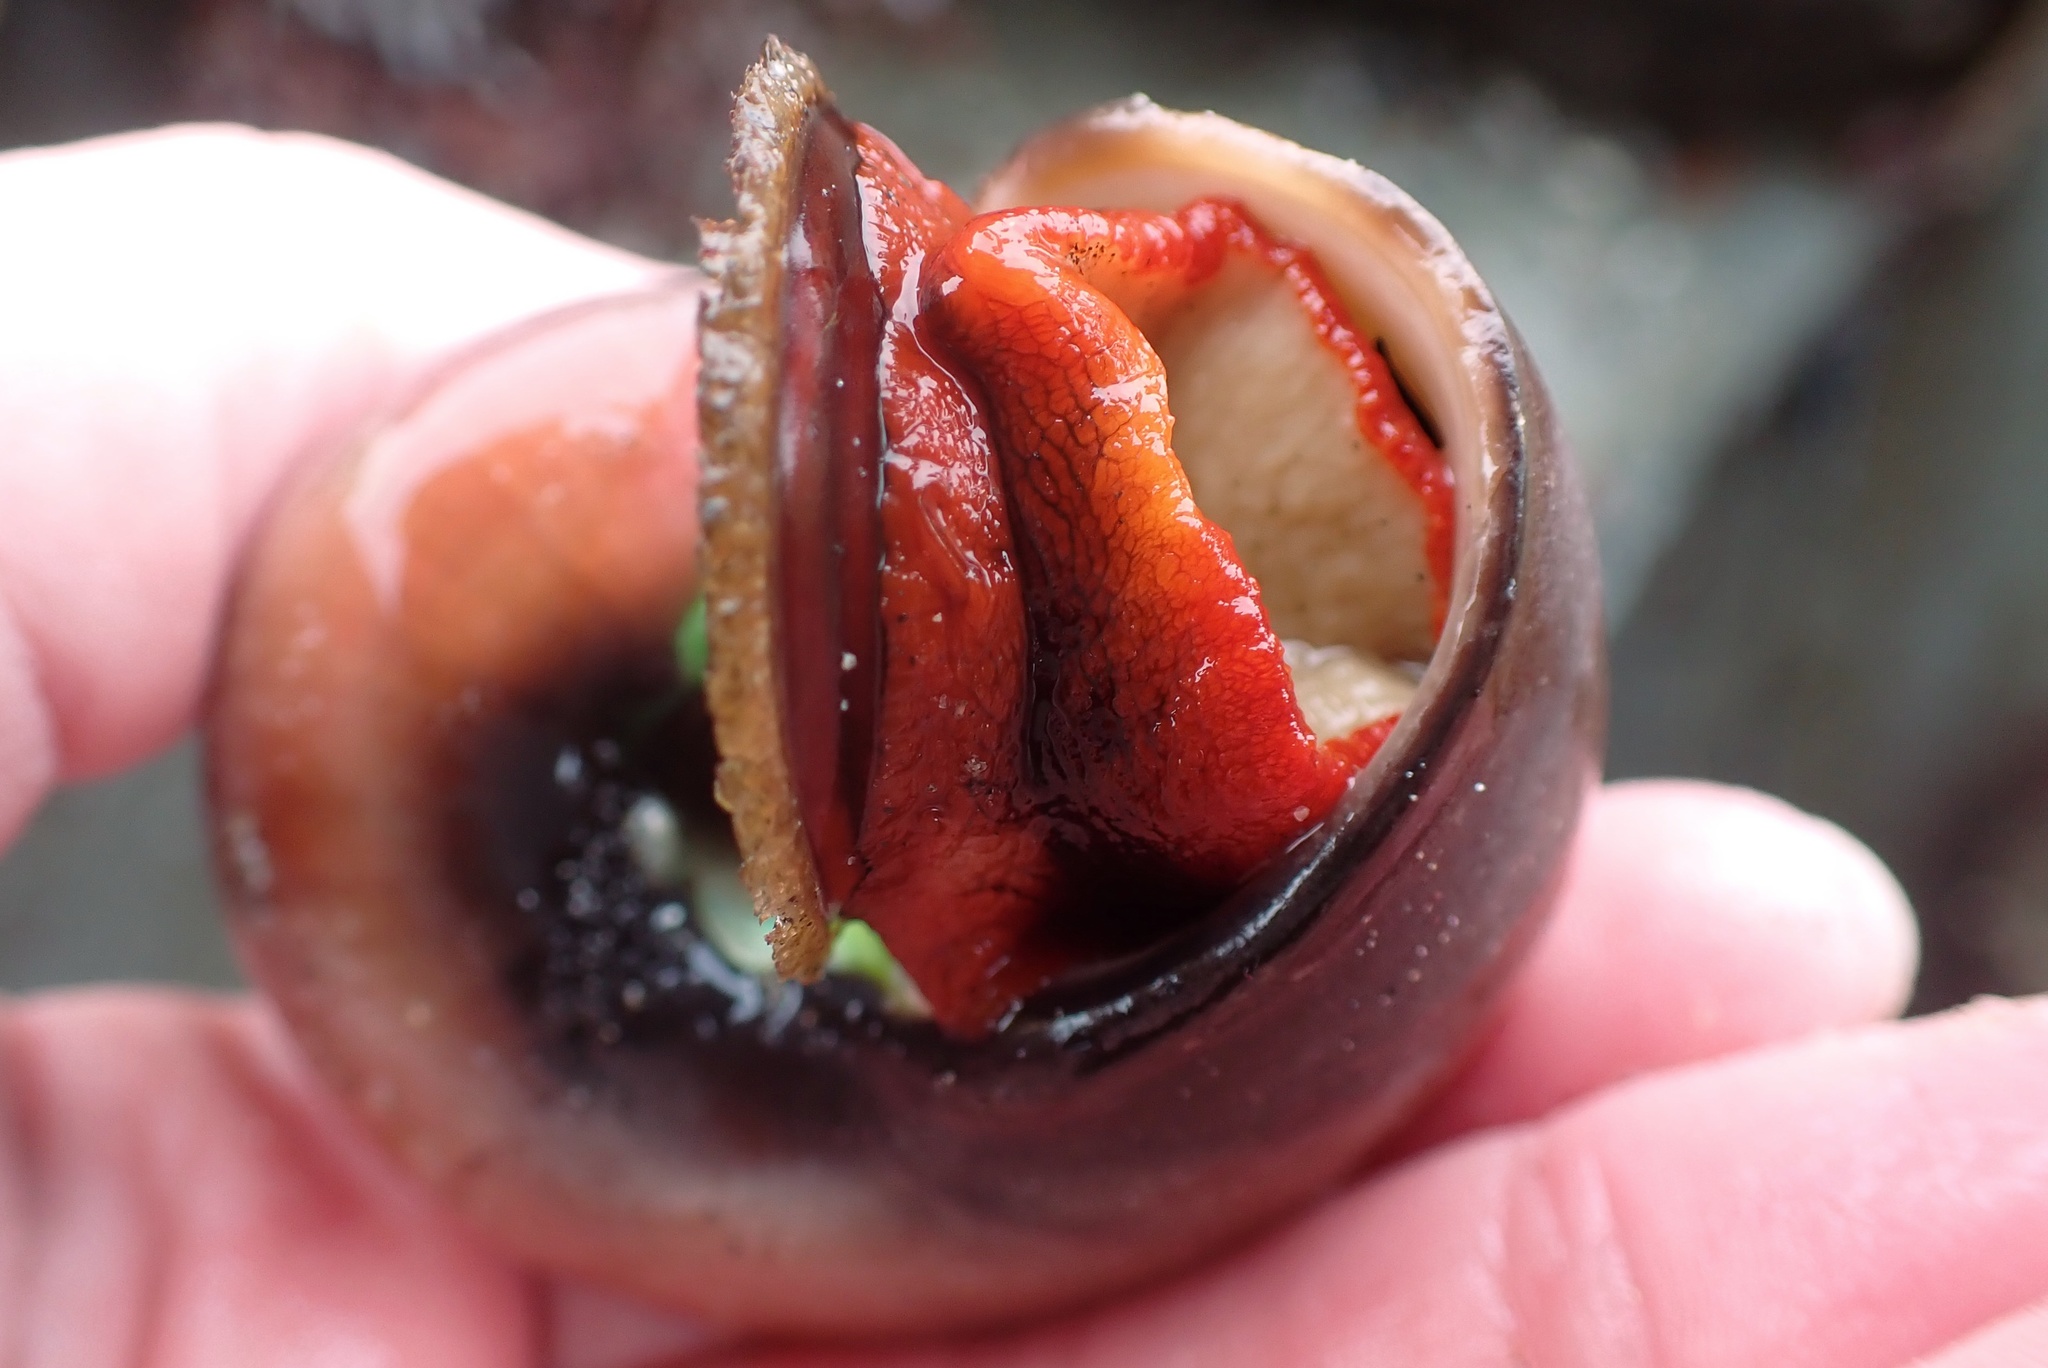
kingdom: Animalia
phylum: Mollusca
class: Gastropoda
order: Trochida
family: Tegulidae
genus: Norrisia
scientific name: Norrisia norrisii
